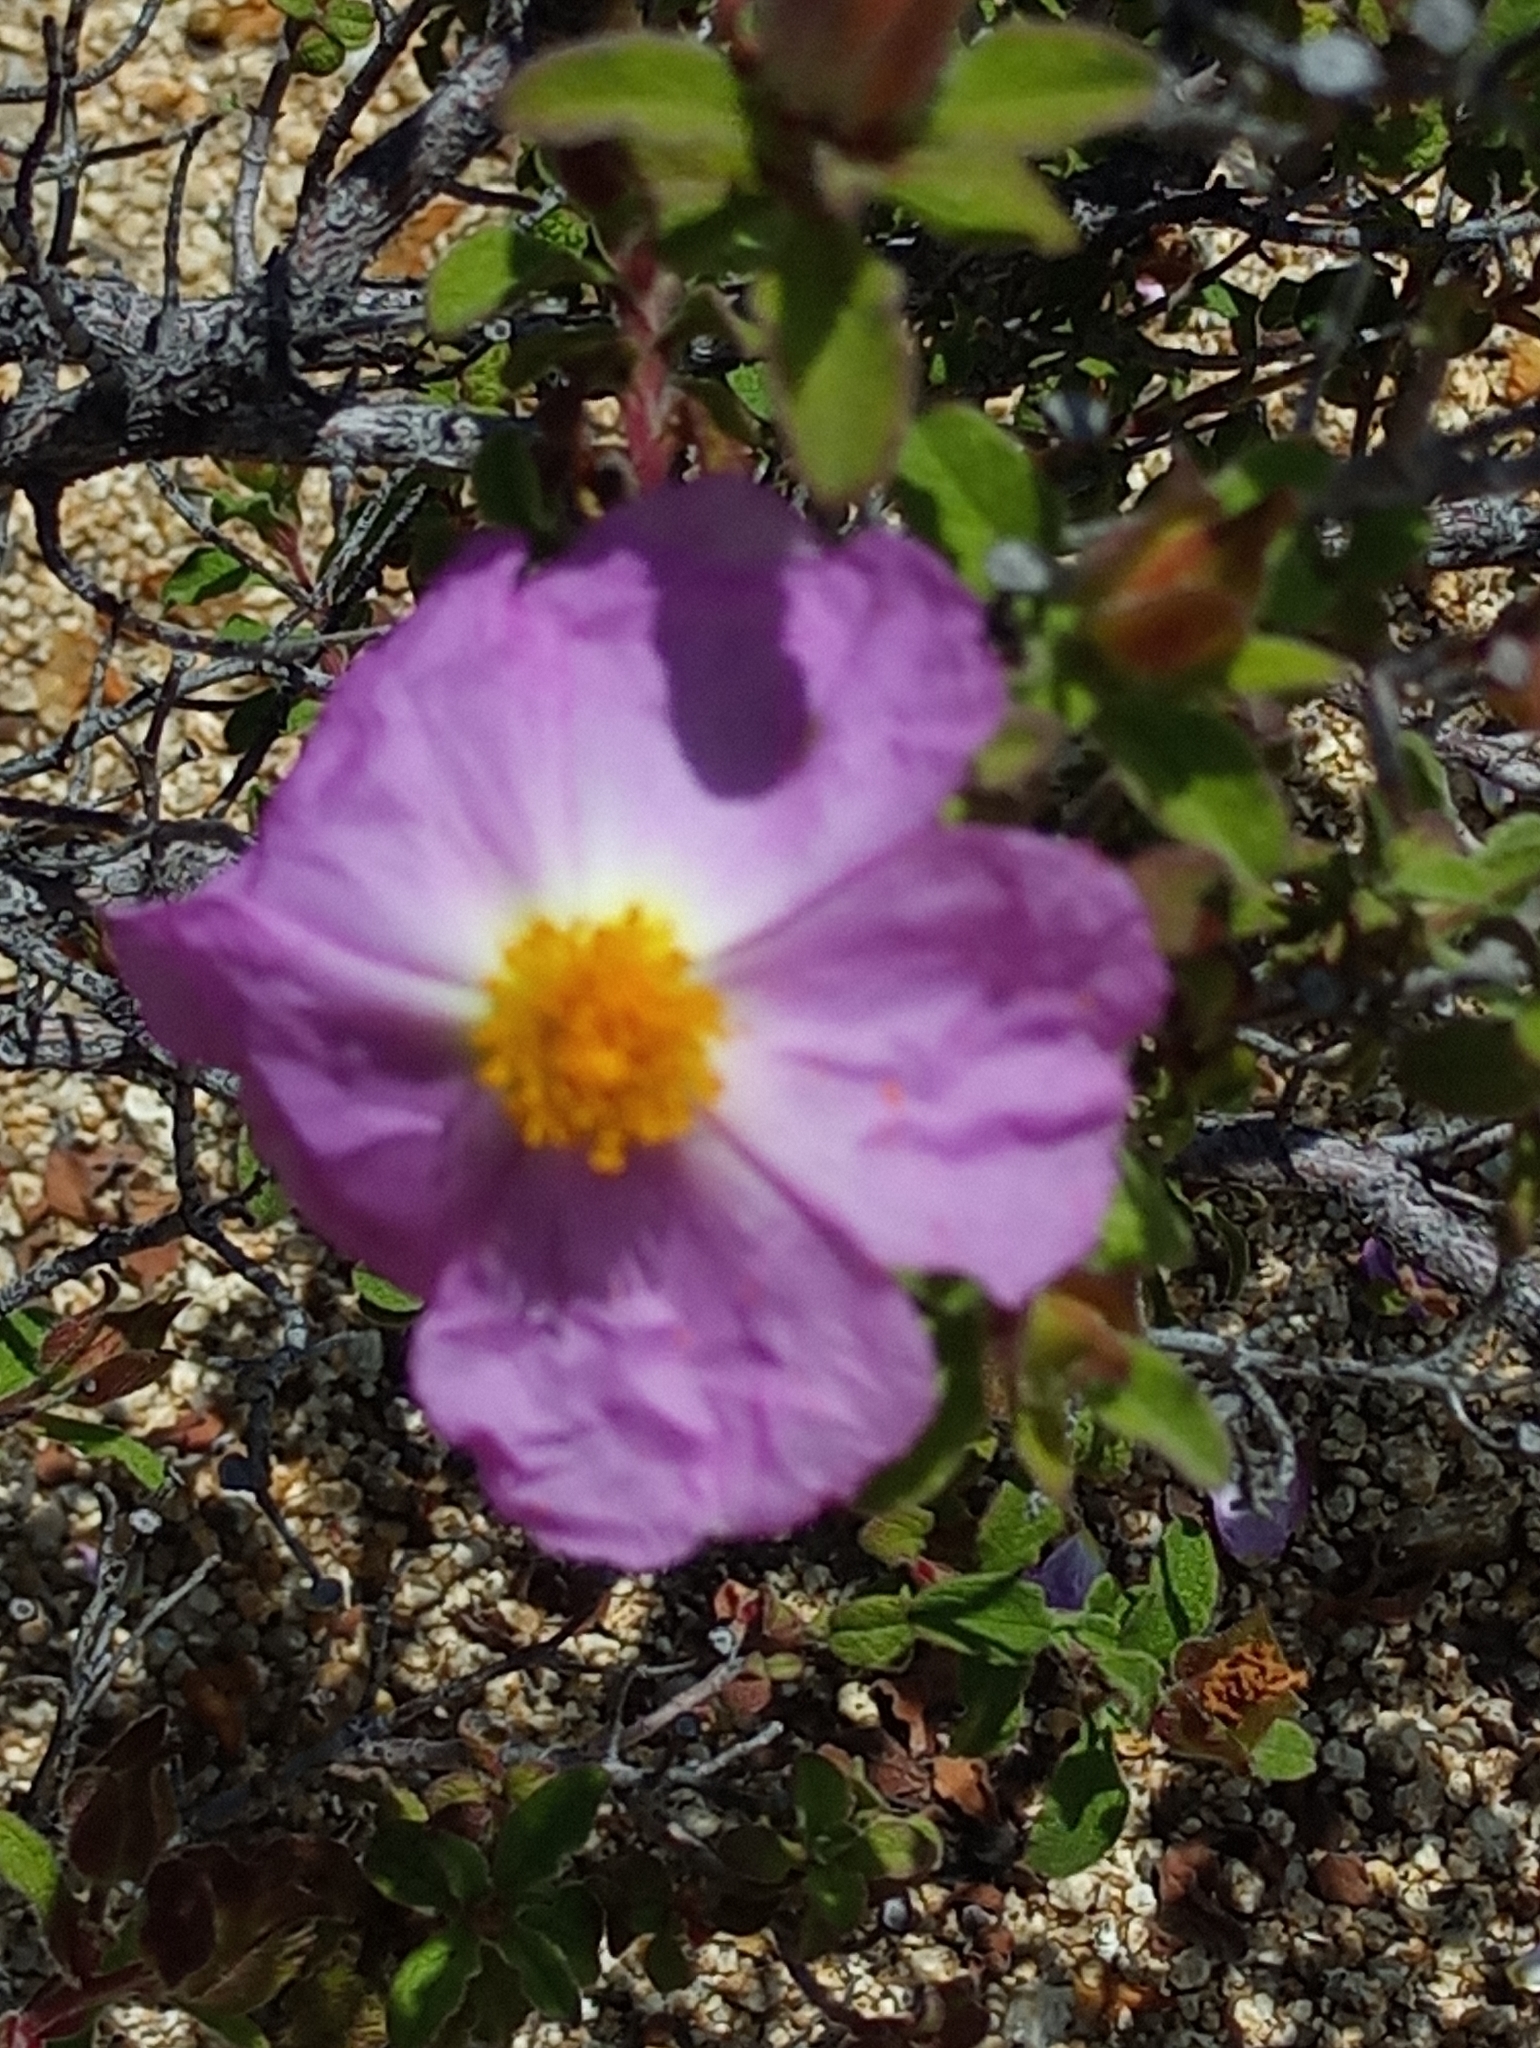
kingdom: Plantae
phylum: Tracheophyta
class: Magnoliopsida
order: Malvales
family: Cistaceae
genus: Cistus
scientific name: Cistus creticus
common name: Cretan rockrose
